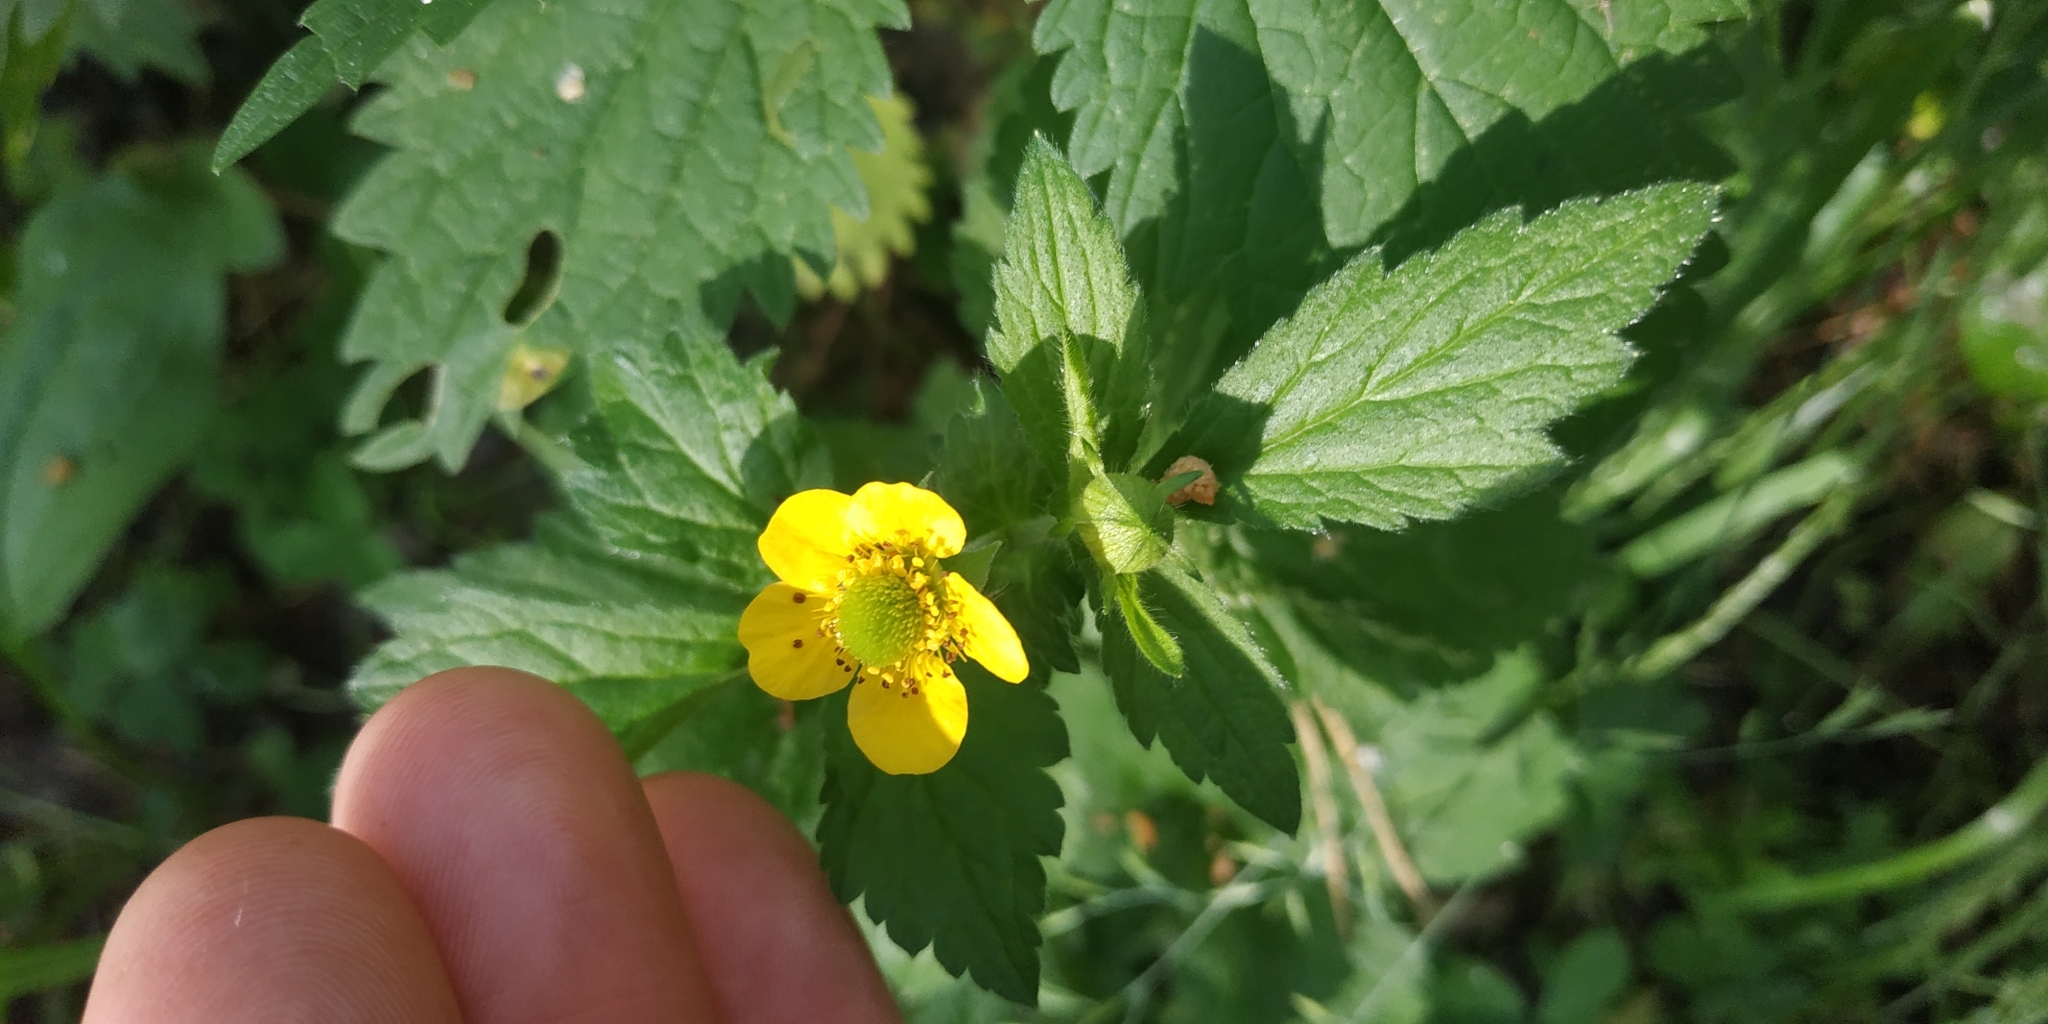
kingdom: Plantae
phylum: Tracheophyta
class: Magnoliopsida
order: Rosales
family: Rosaceae
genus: Geum
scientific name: Geum aleppicum
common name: Yellow avens
